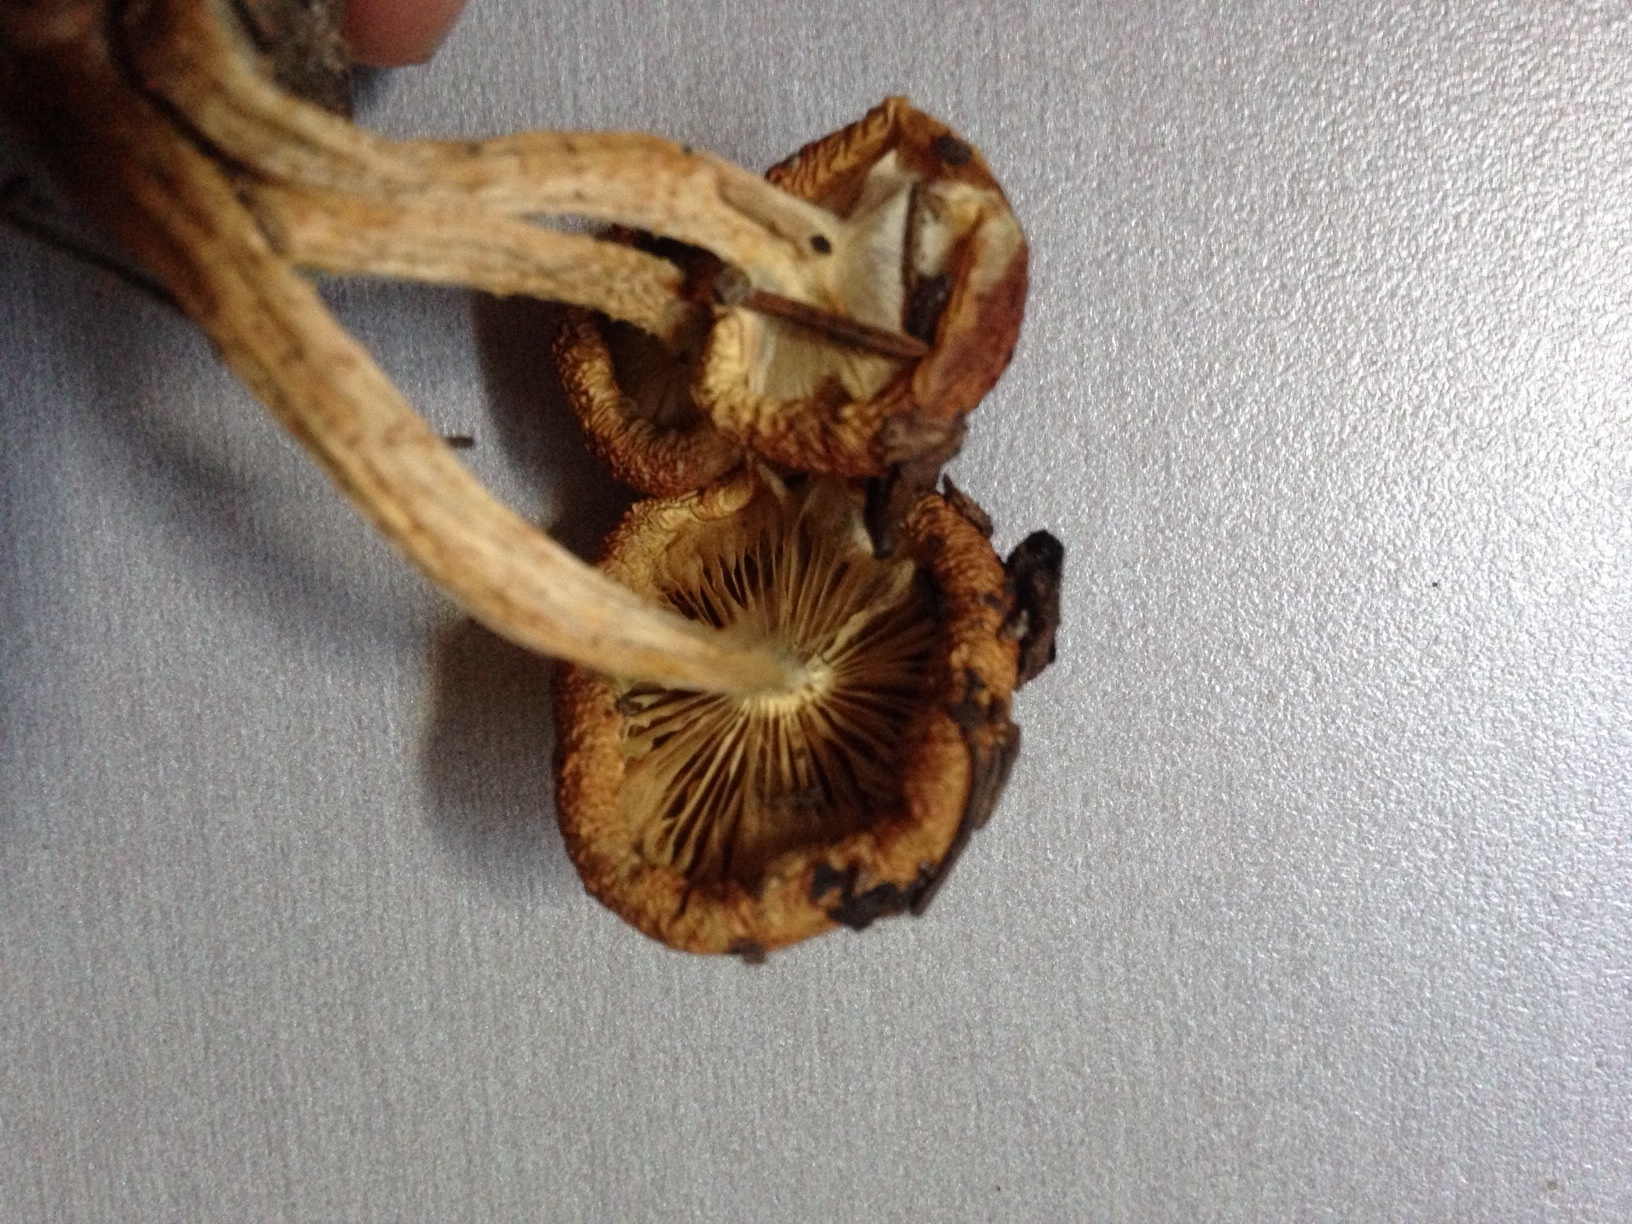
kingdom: Fungi
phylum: Basidiomycota
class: Agaricomycetes
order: Agaricales
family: Strophariaceae
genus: Pholiota
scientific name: Pholiota rufodisca
